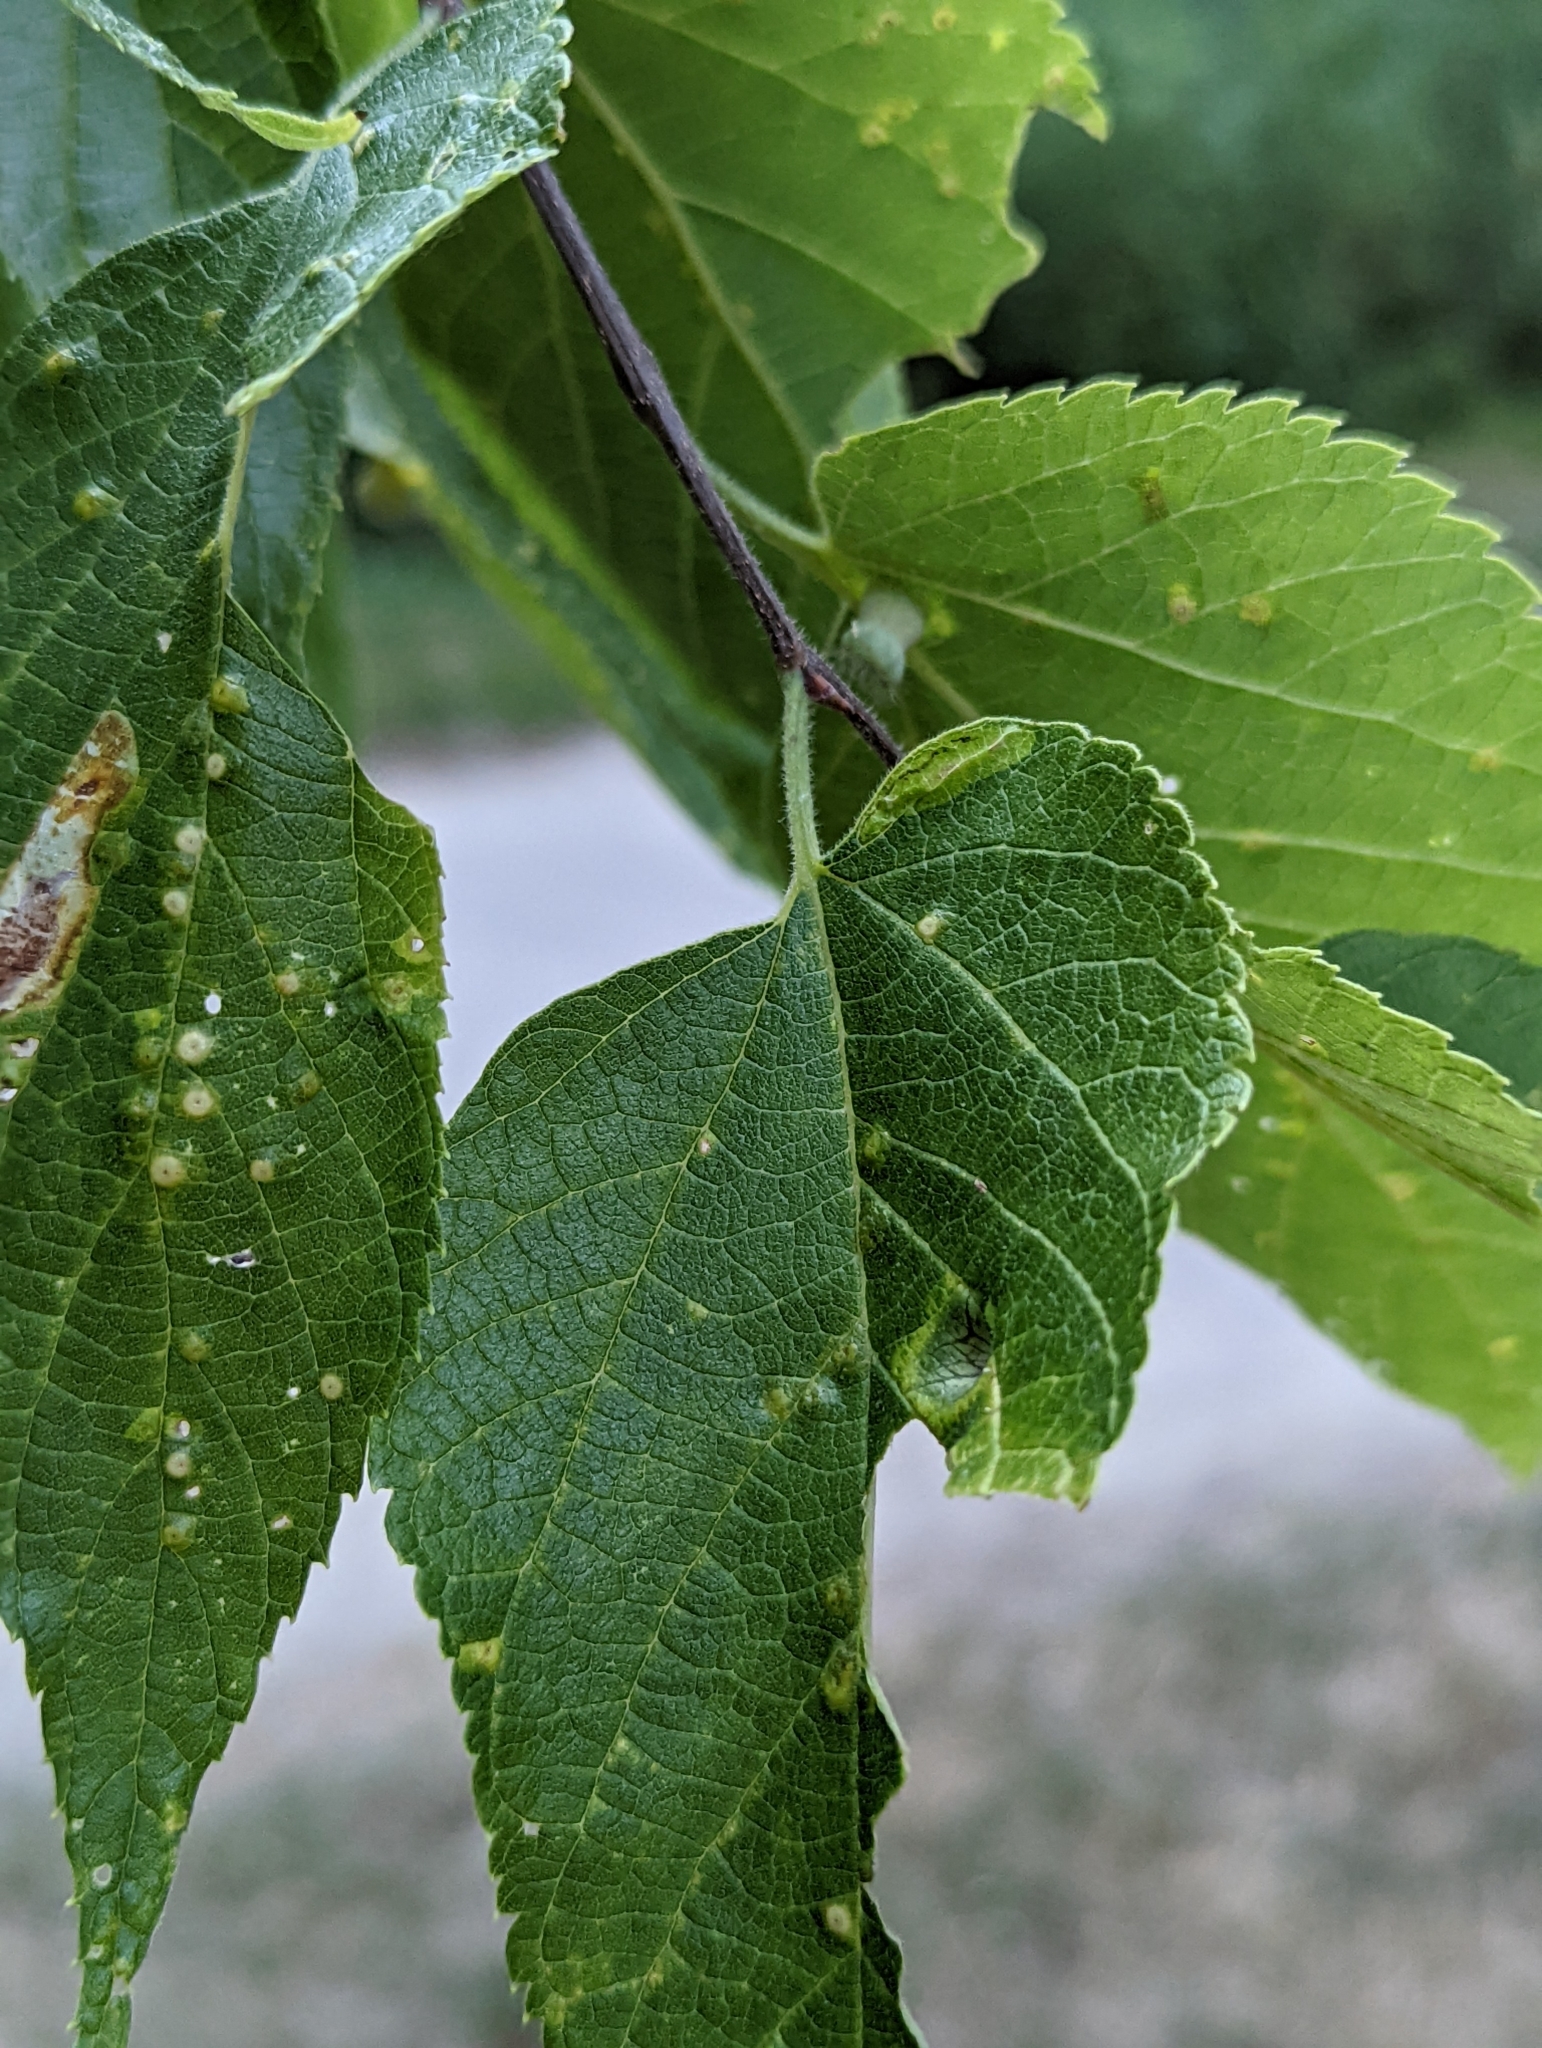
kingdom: Animalia
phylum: Arthropoda
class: Insecta
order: Hemiptera
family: Aphalaridae
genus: Pachypsylla
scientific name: Pachypsylla celtidismamma
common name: Hackberry nipplegall psyllid
